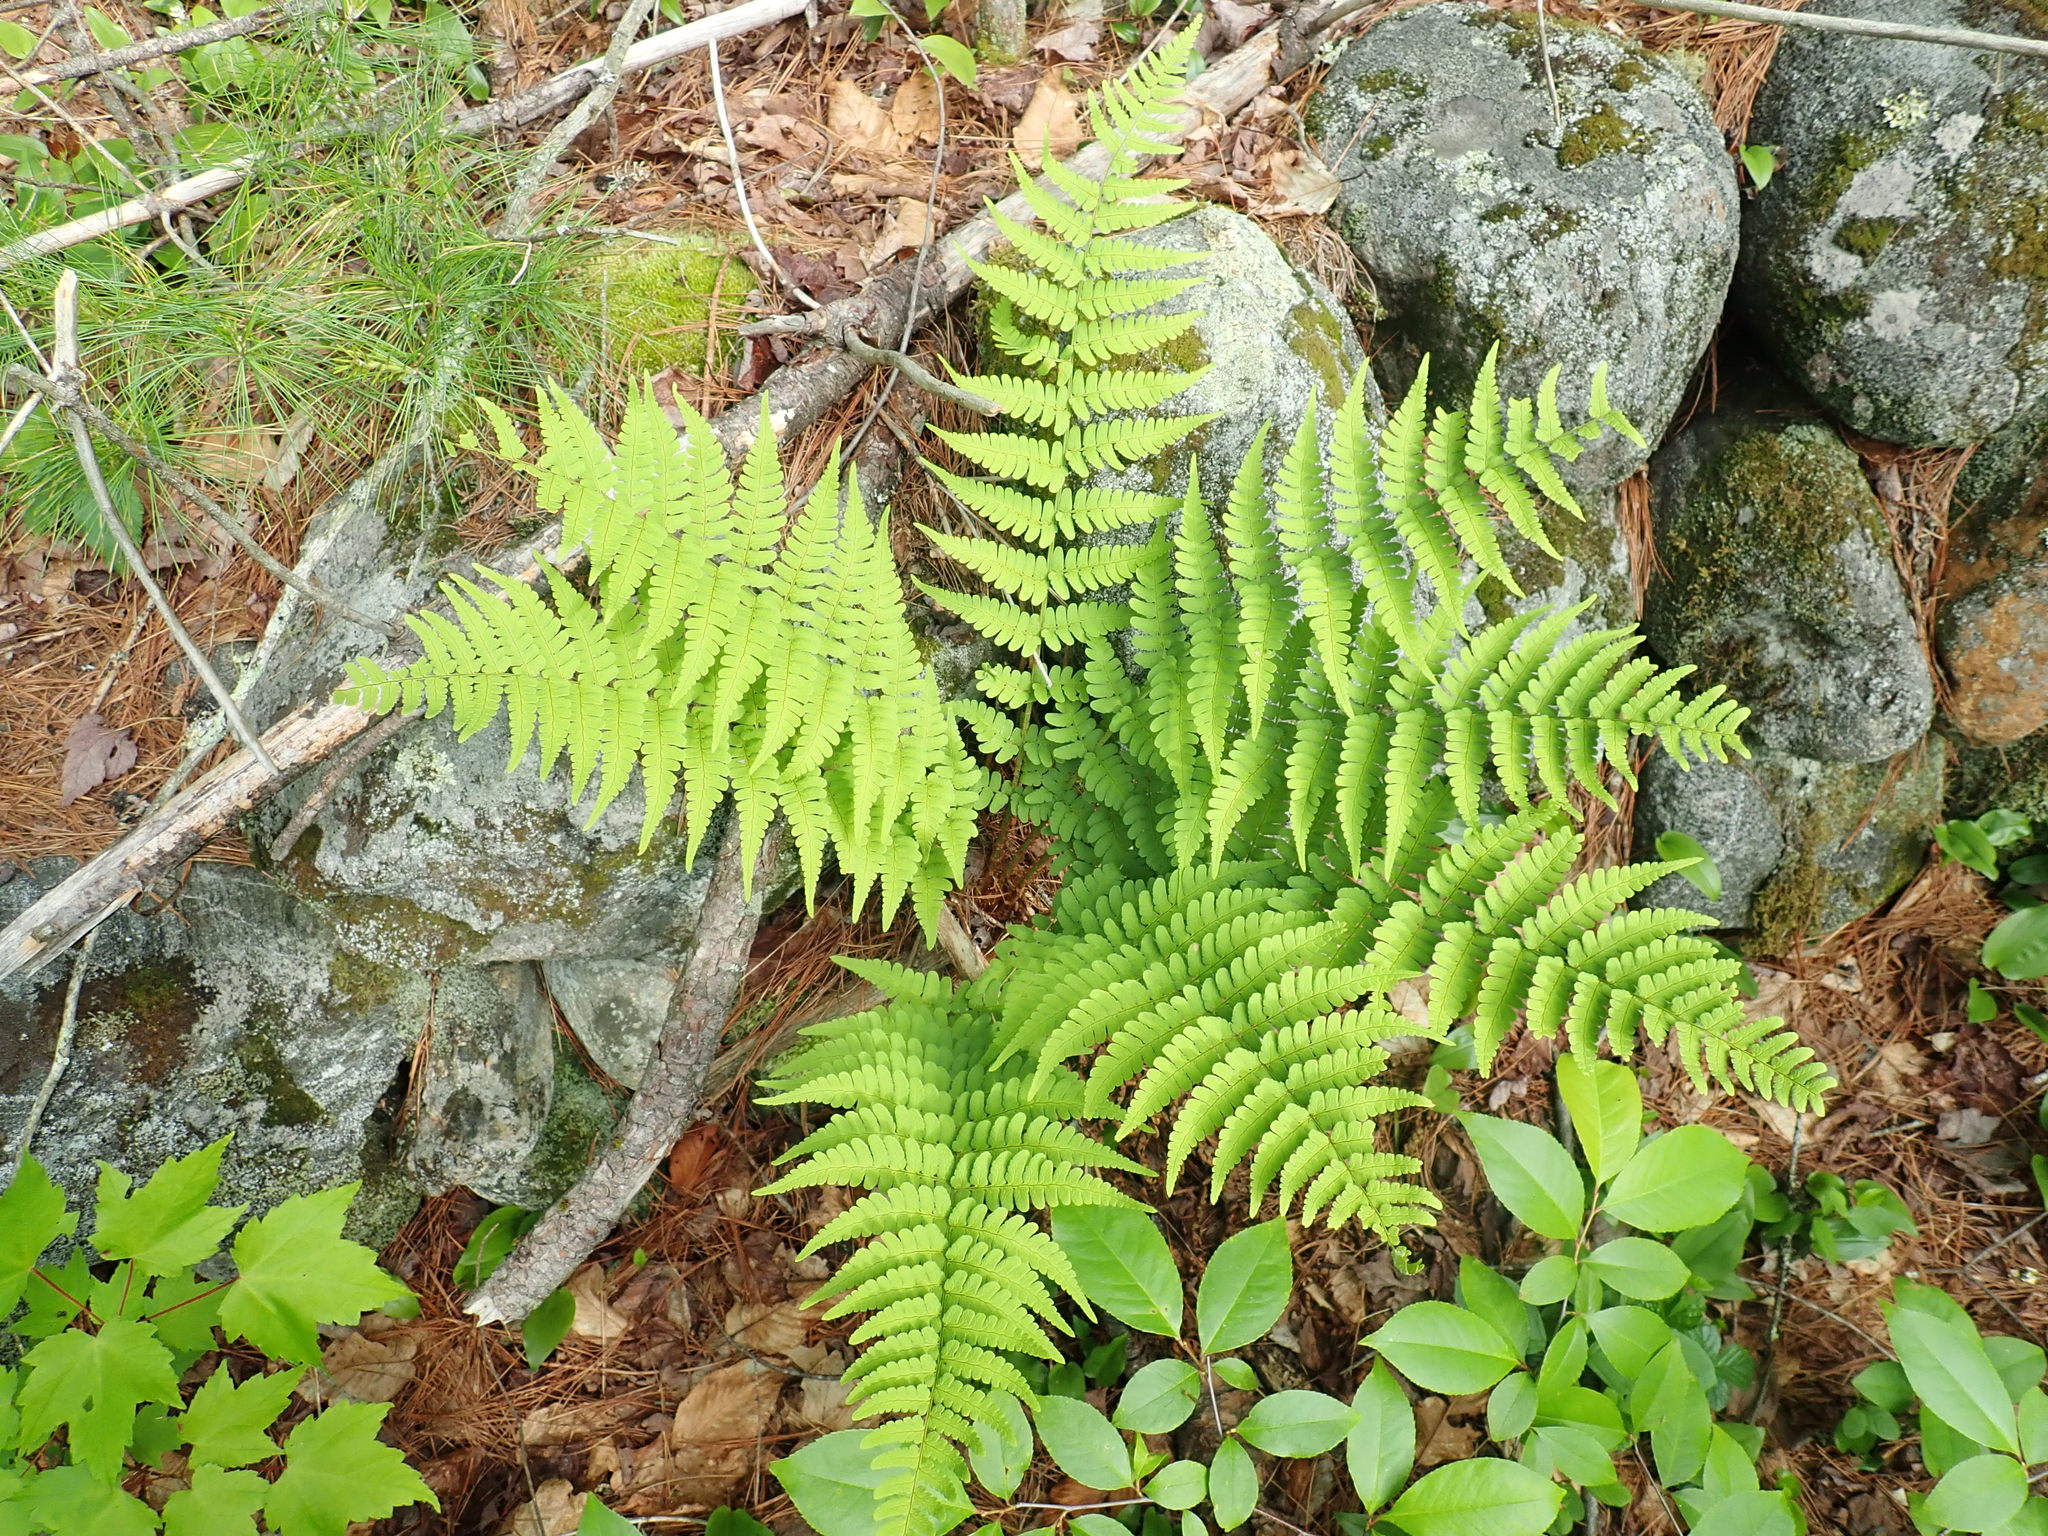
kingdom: Plantae
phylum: Tracheophyta
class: Polypodiopsida
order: Polypodiales
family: Dryopteridaceae
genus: Dryopteris
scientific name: Dryopteris marginalis
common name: Marginal wood fern
